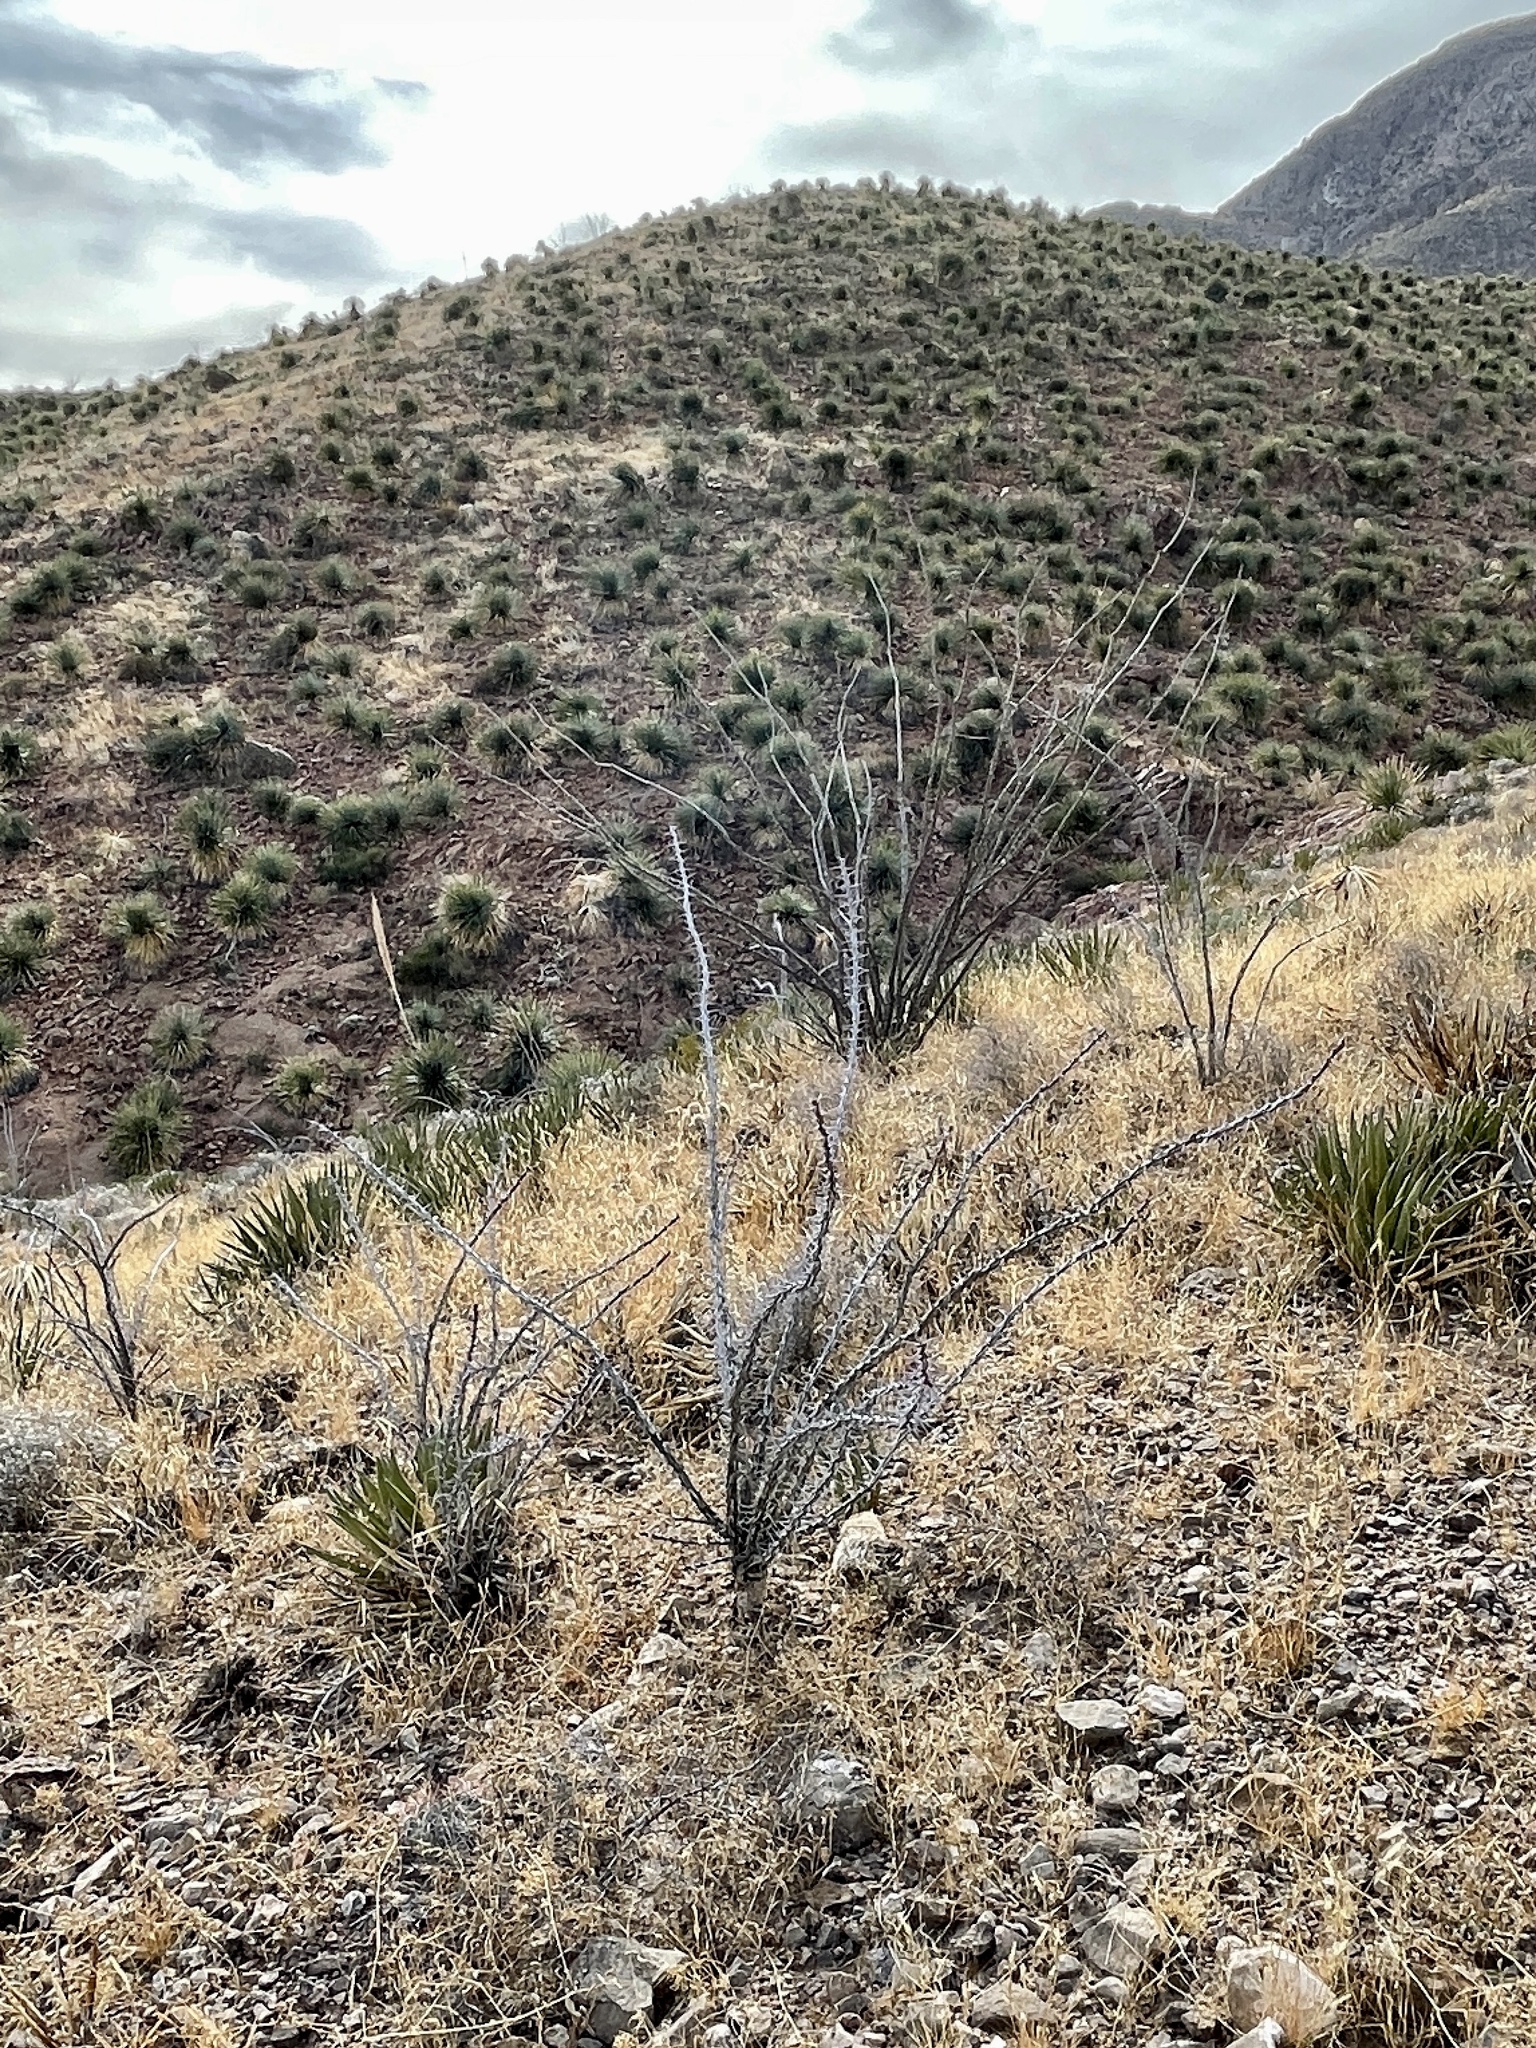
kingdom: Plantae
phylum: Tracheophyta
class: Magnoliopsida
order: Ericales
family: Fouquieriaceae
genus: Fouquieria
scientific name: Fouquieria splendens
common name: Vine-cactus
